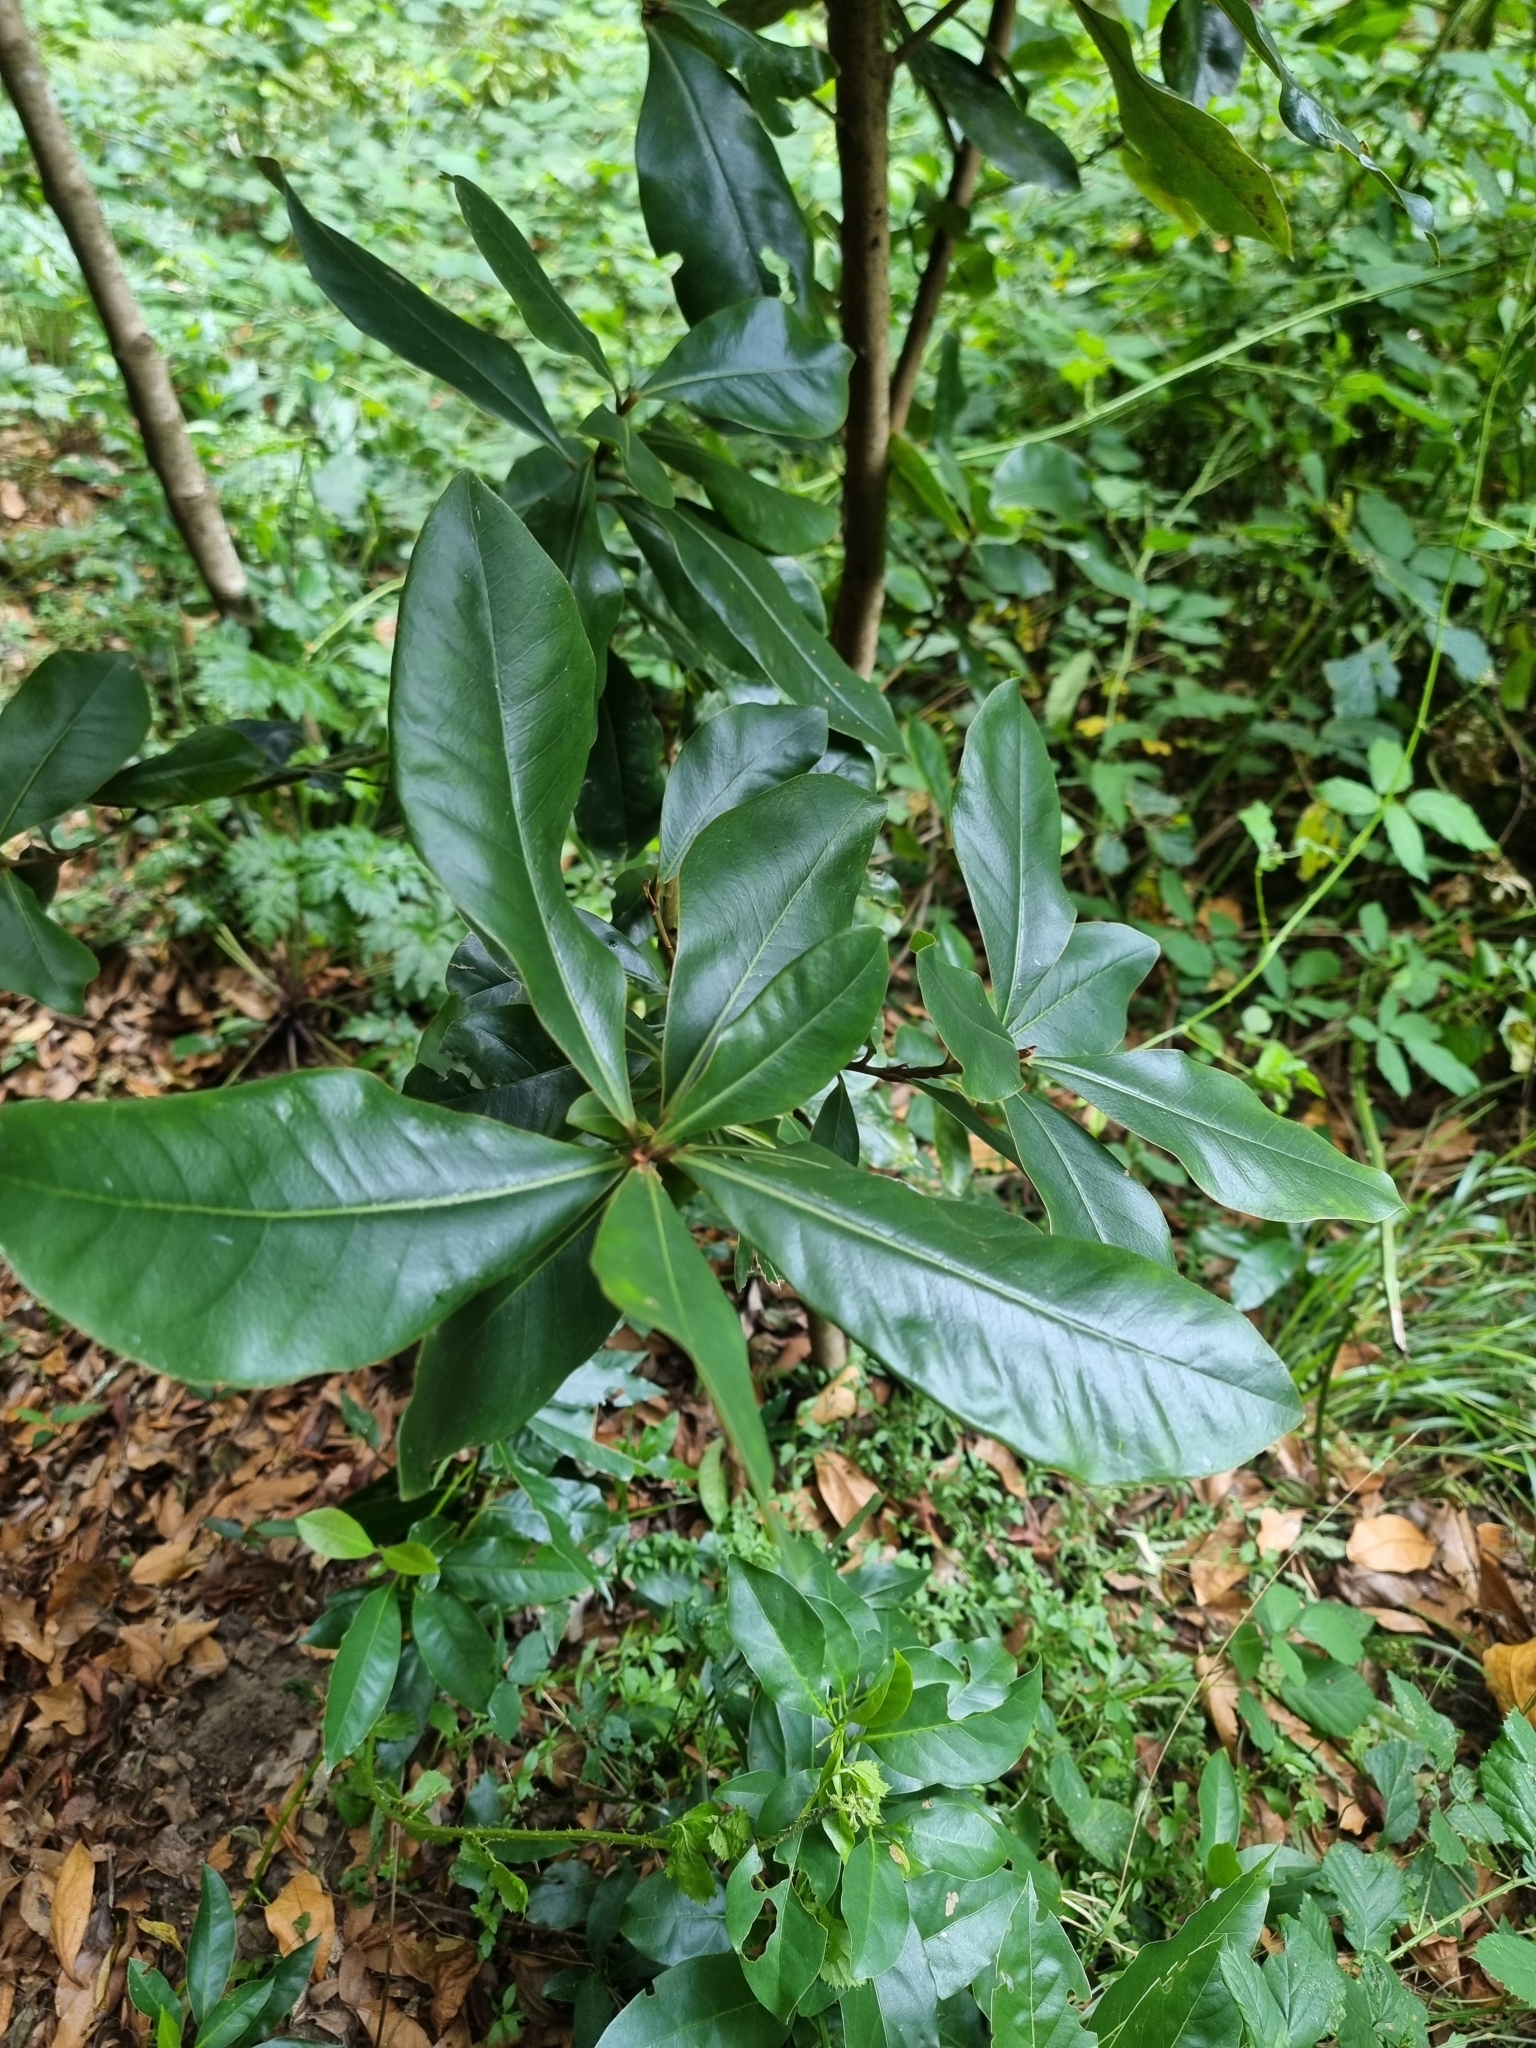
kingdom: Plantae
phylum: Tracheophyta
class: Magnoliopsida
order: Ericales
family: Primulaceae
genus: Heberdenia
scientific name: Heberdenia excelsa
